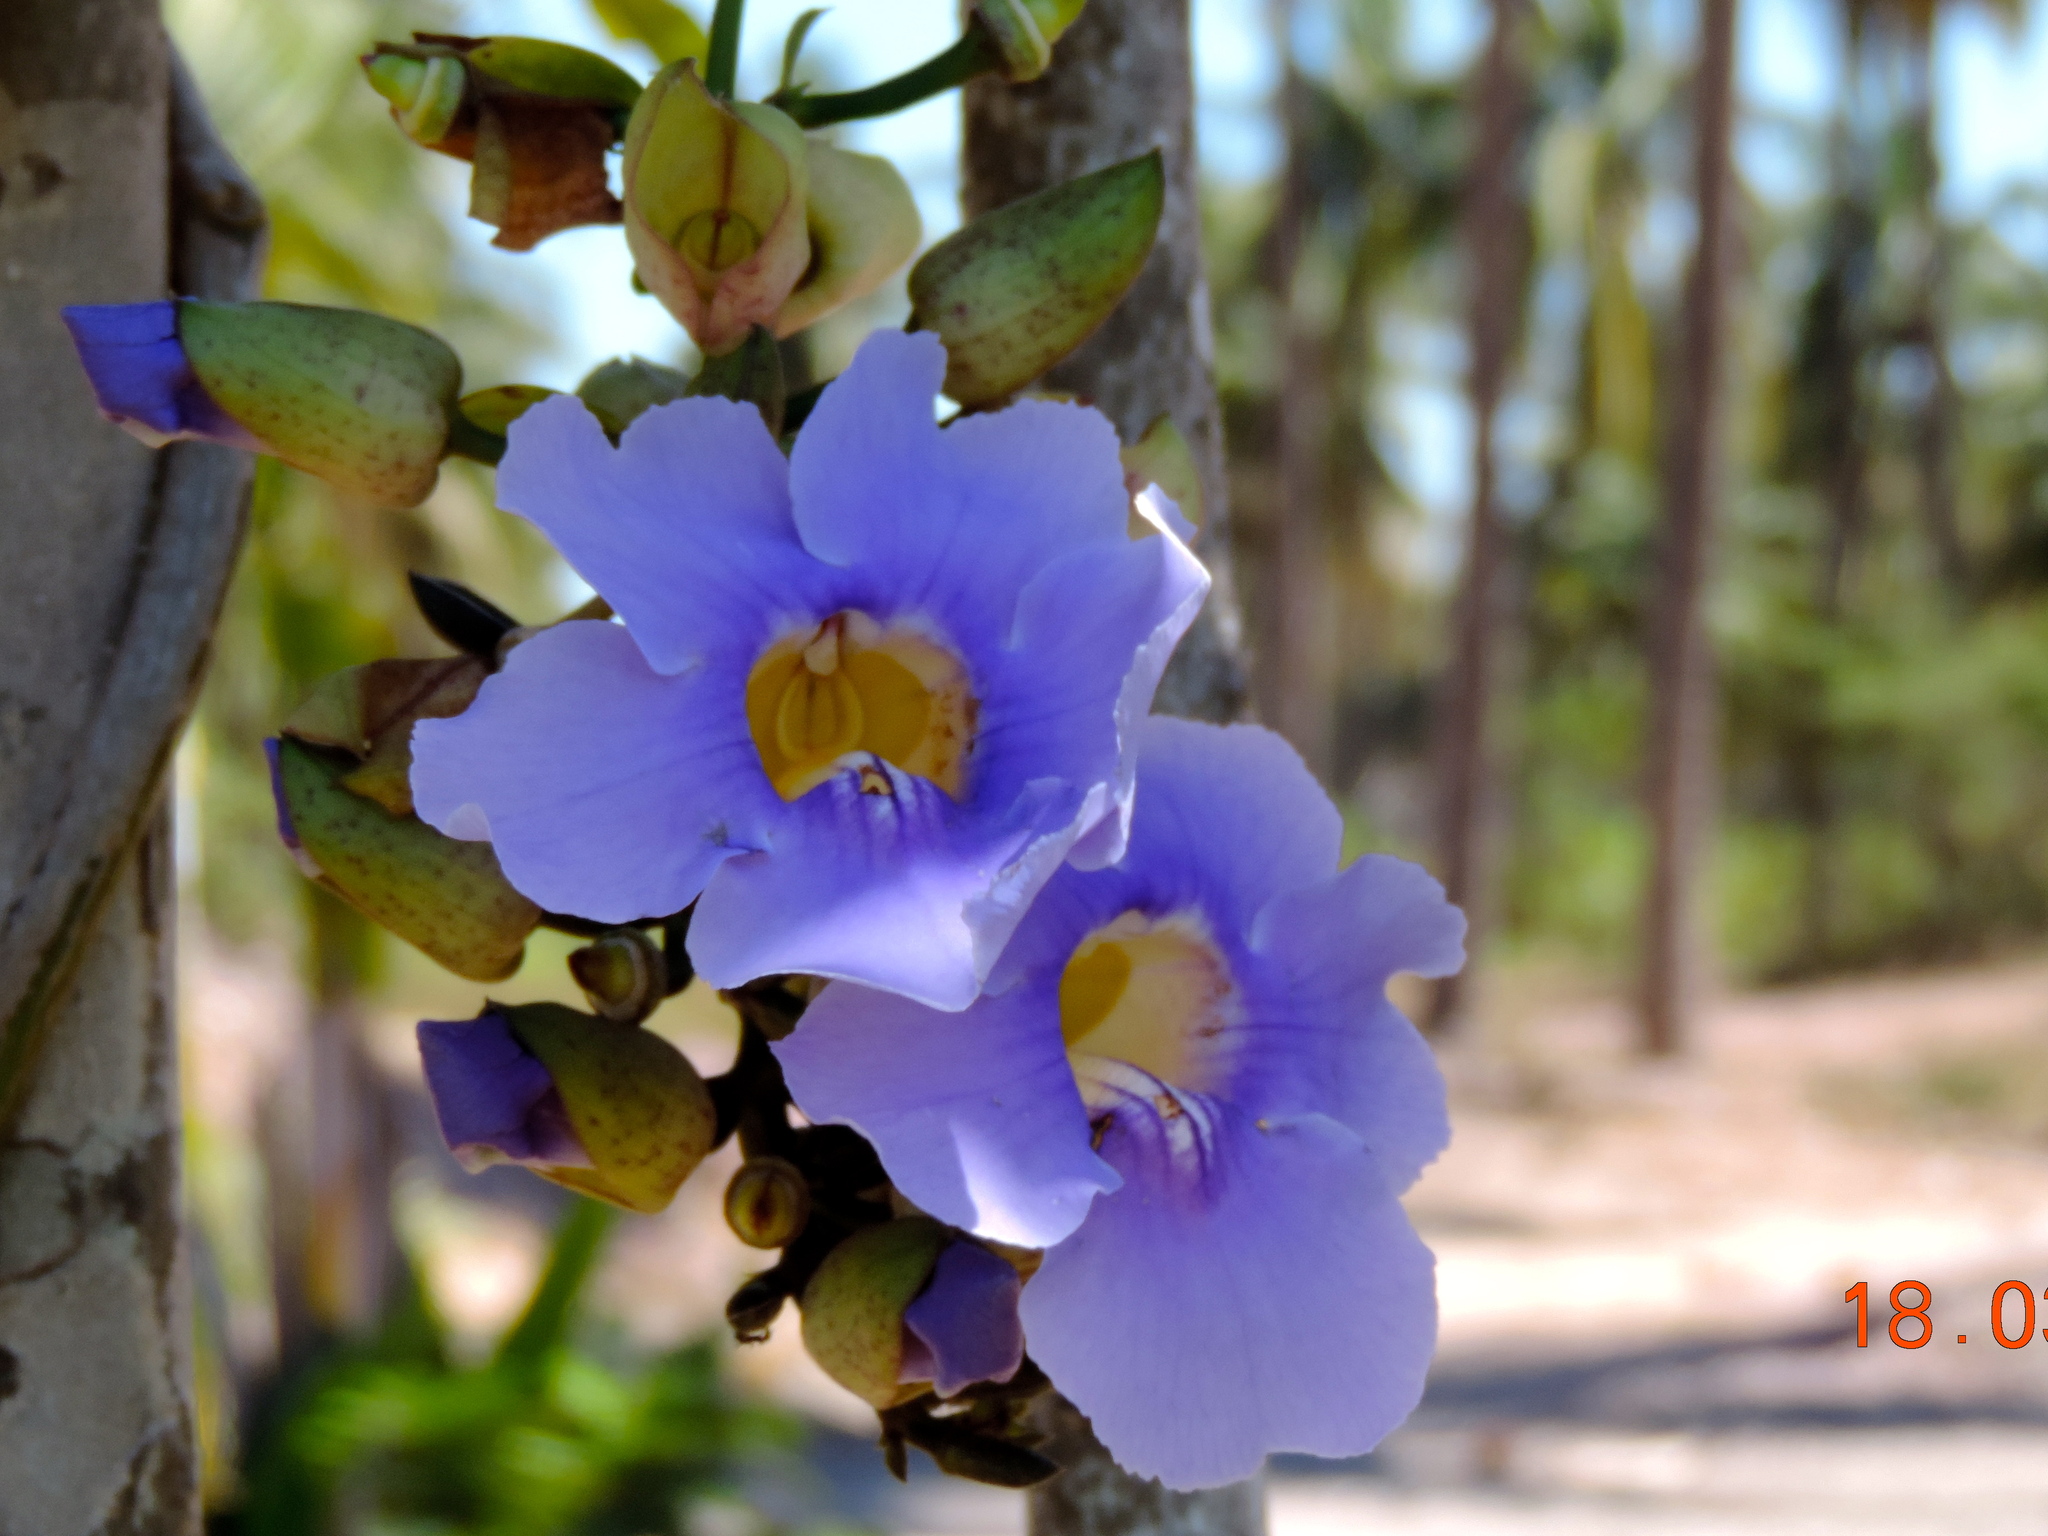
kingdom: Plantae
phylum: Tracheophyta
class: Magnoliopsida
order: Lamiales
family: Acanthaceae
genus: Thunbergia
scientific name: Thunbergia grandiflora
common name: Bengal trumpet
